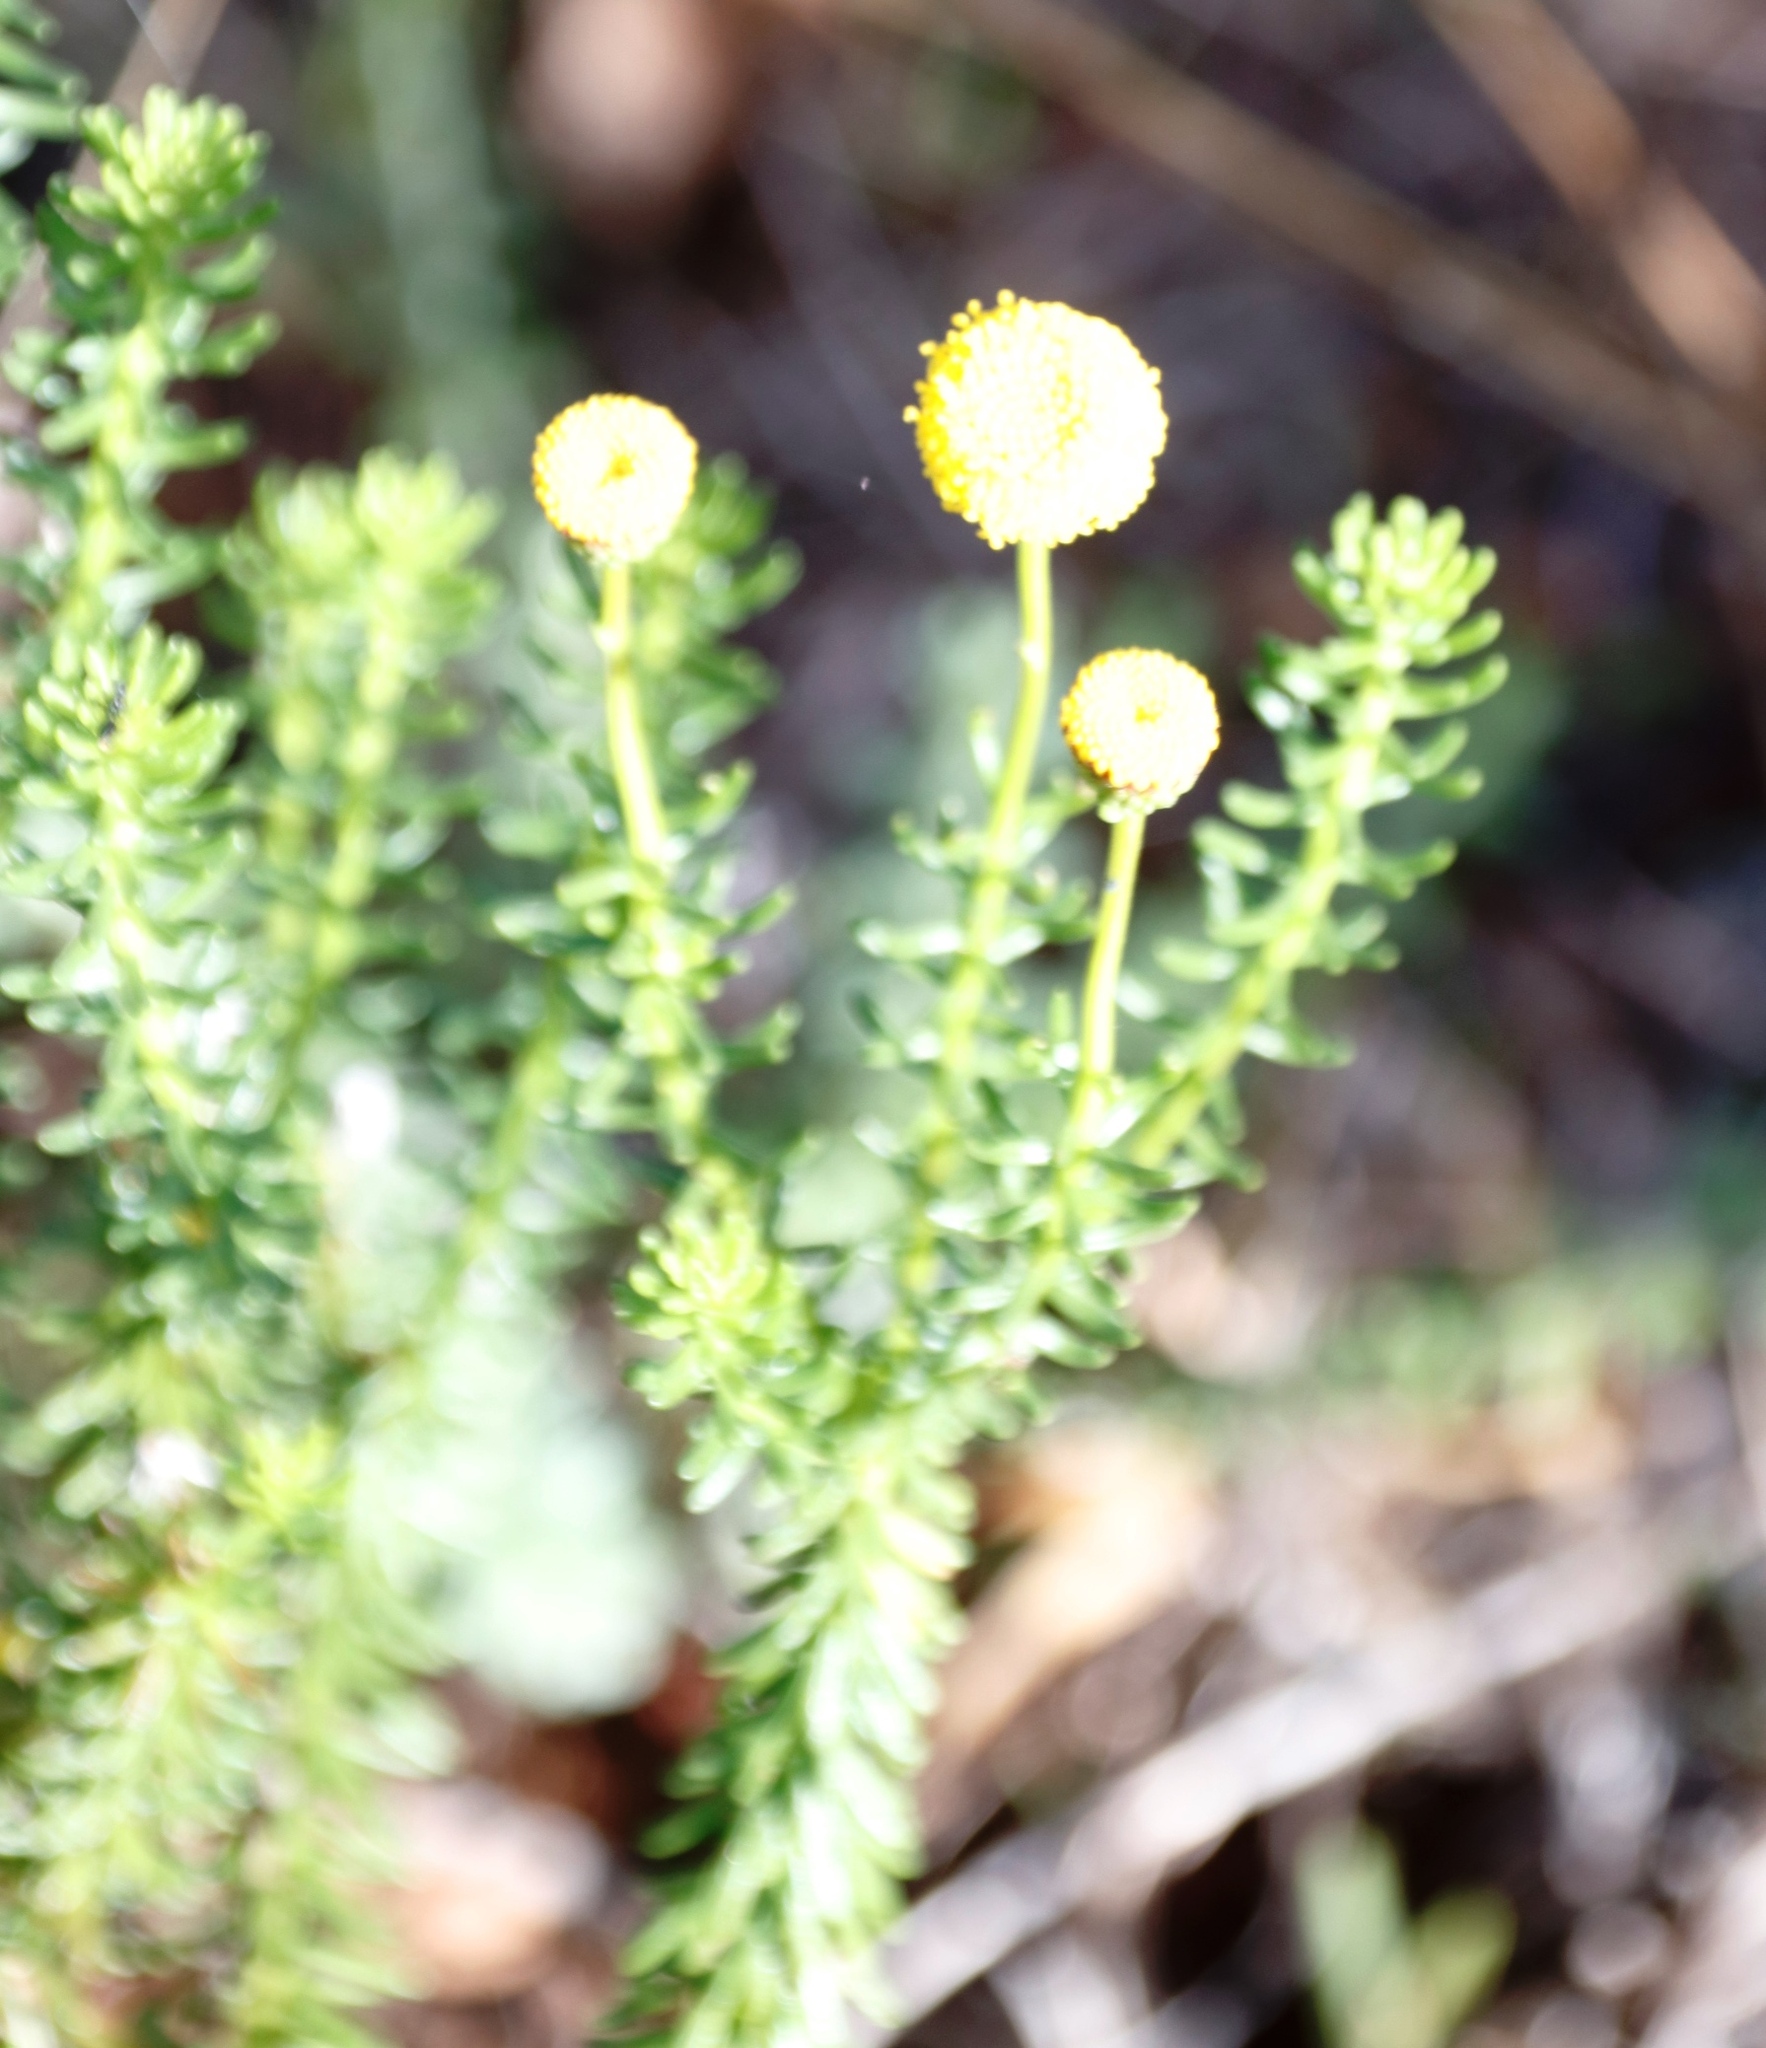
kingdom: Plantae
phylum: Tracheophyta
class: Magnoliopsida
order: Asterales
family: Asteraceae
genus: Chrysocoma
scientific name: Chrysocoma cernua
